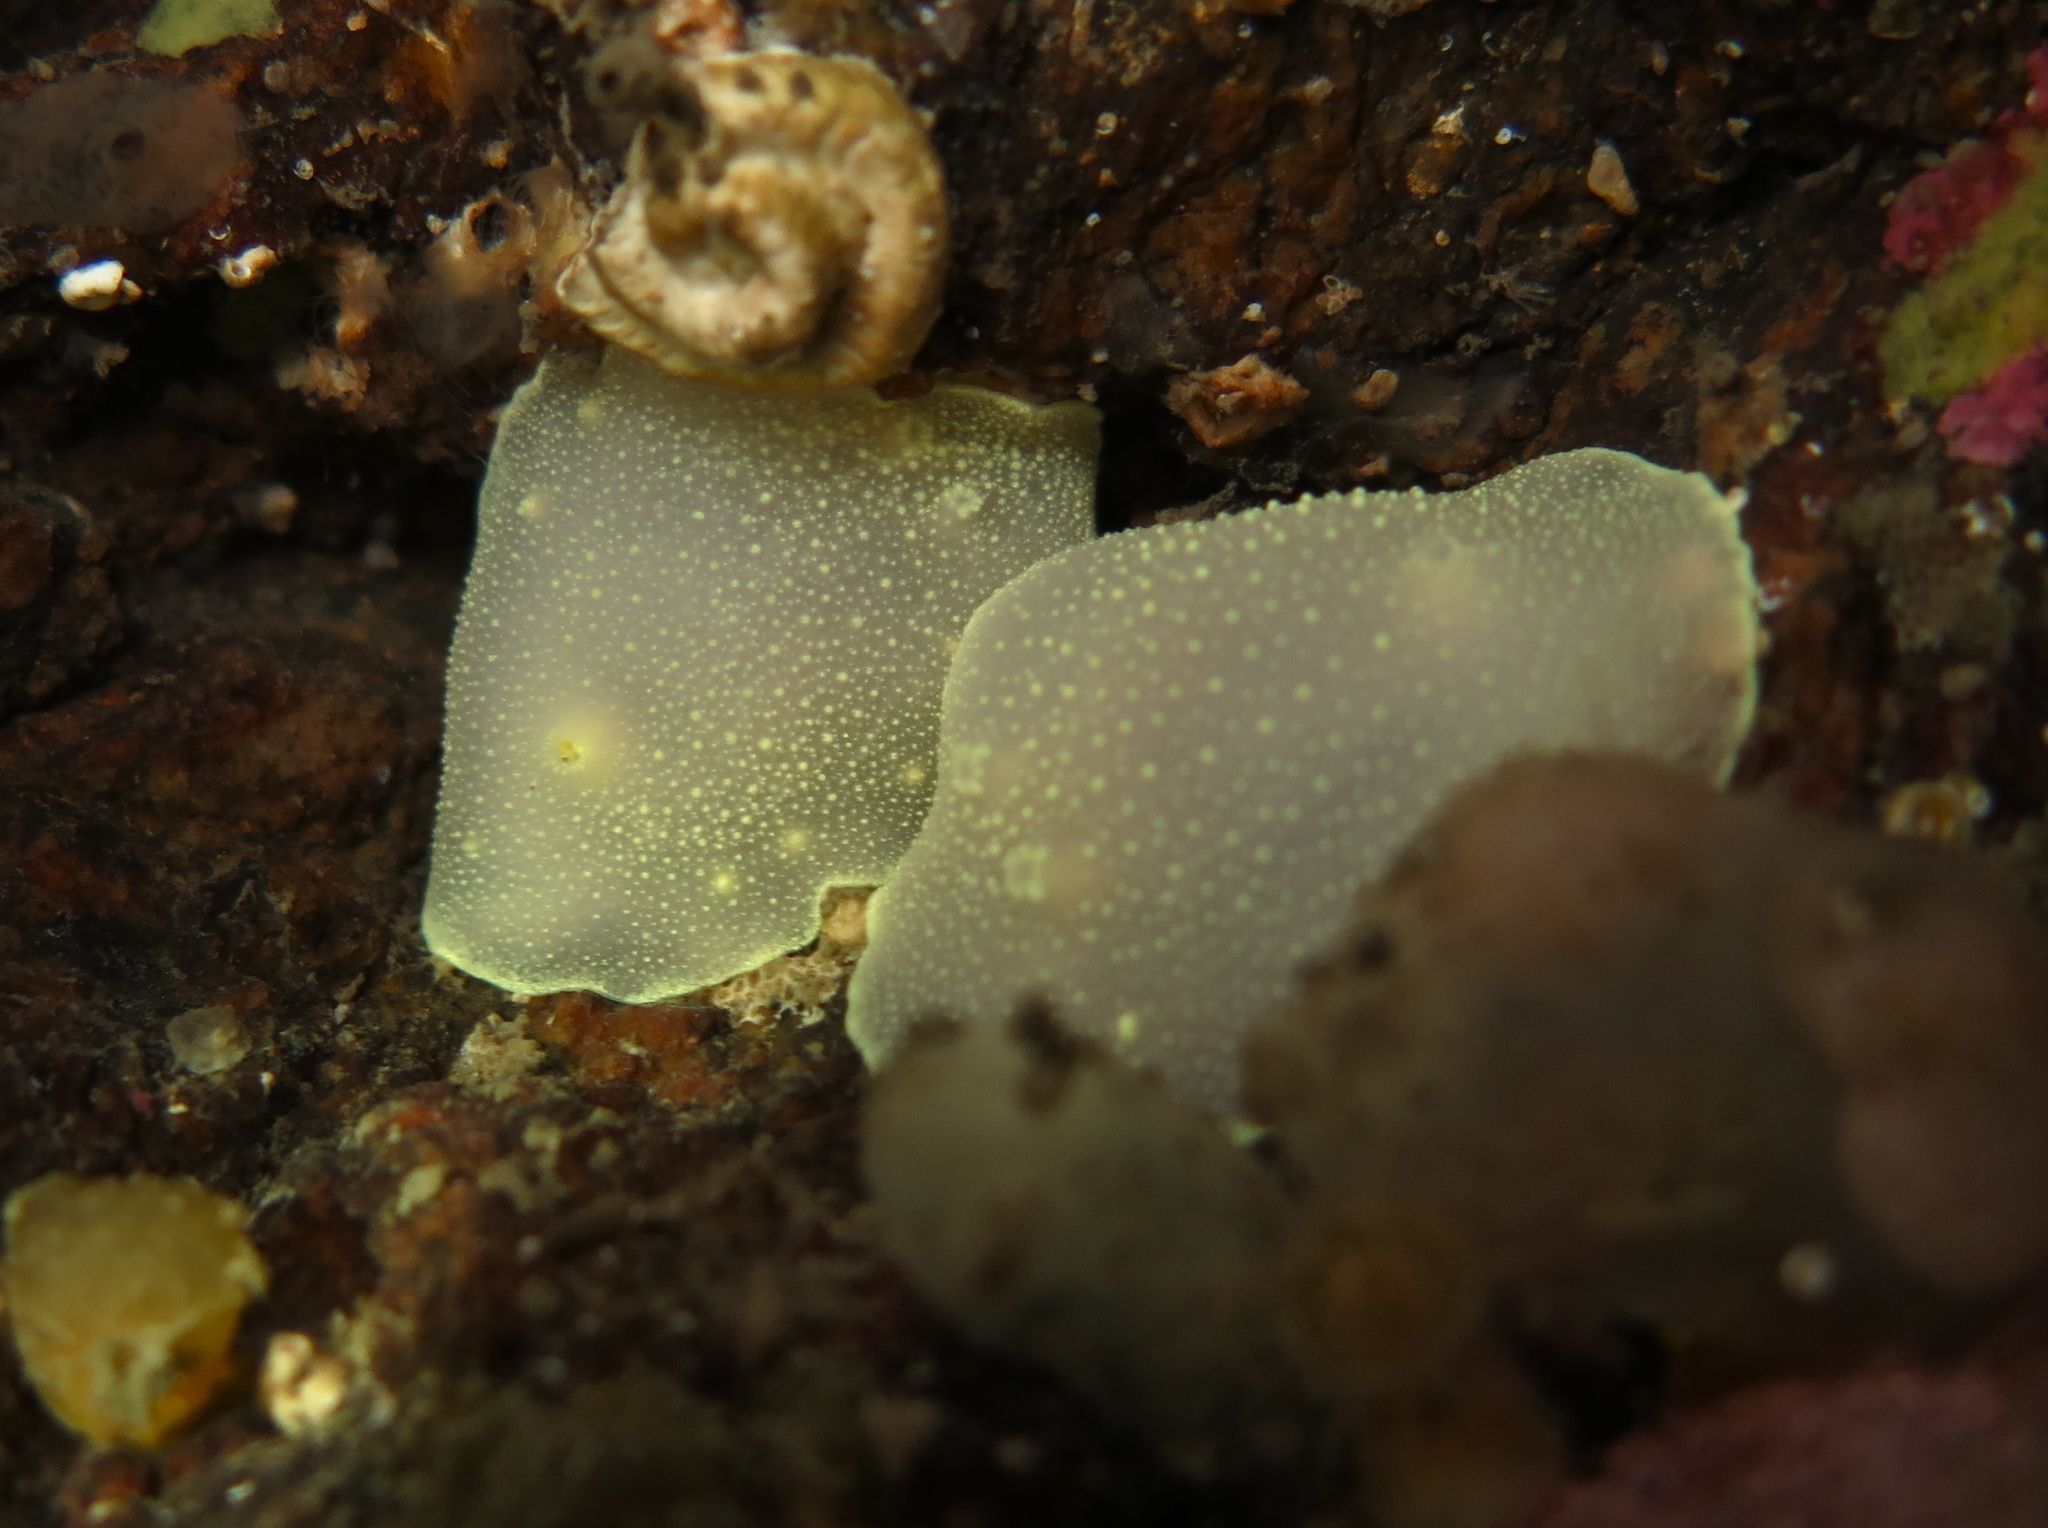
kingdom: Animalia
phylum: Mollusca
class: Gastropoda
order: Nudibranchia
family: Cadlinidae
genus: Cadlina
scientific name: Cadlina laevis
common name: White atlantic cadlina
